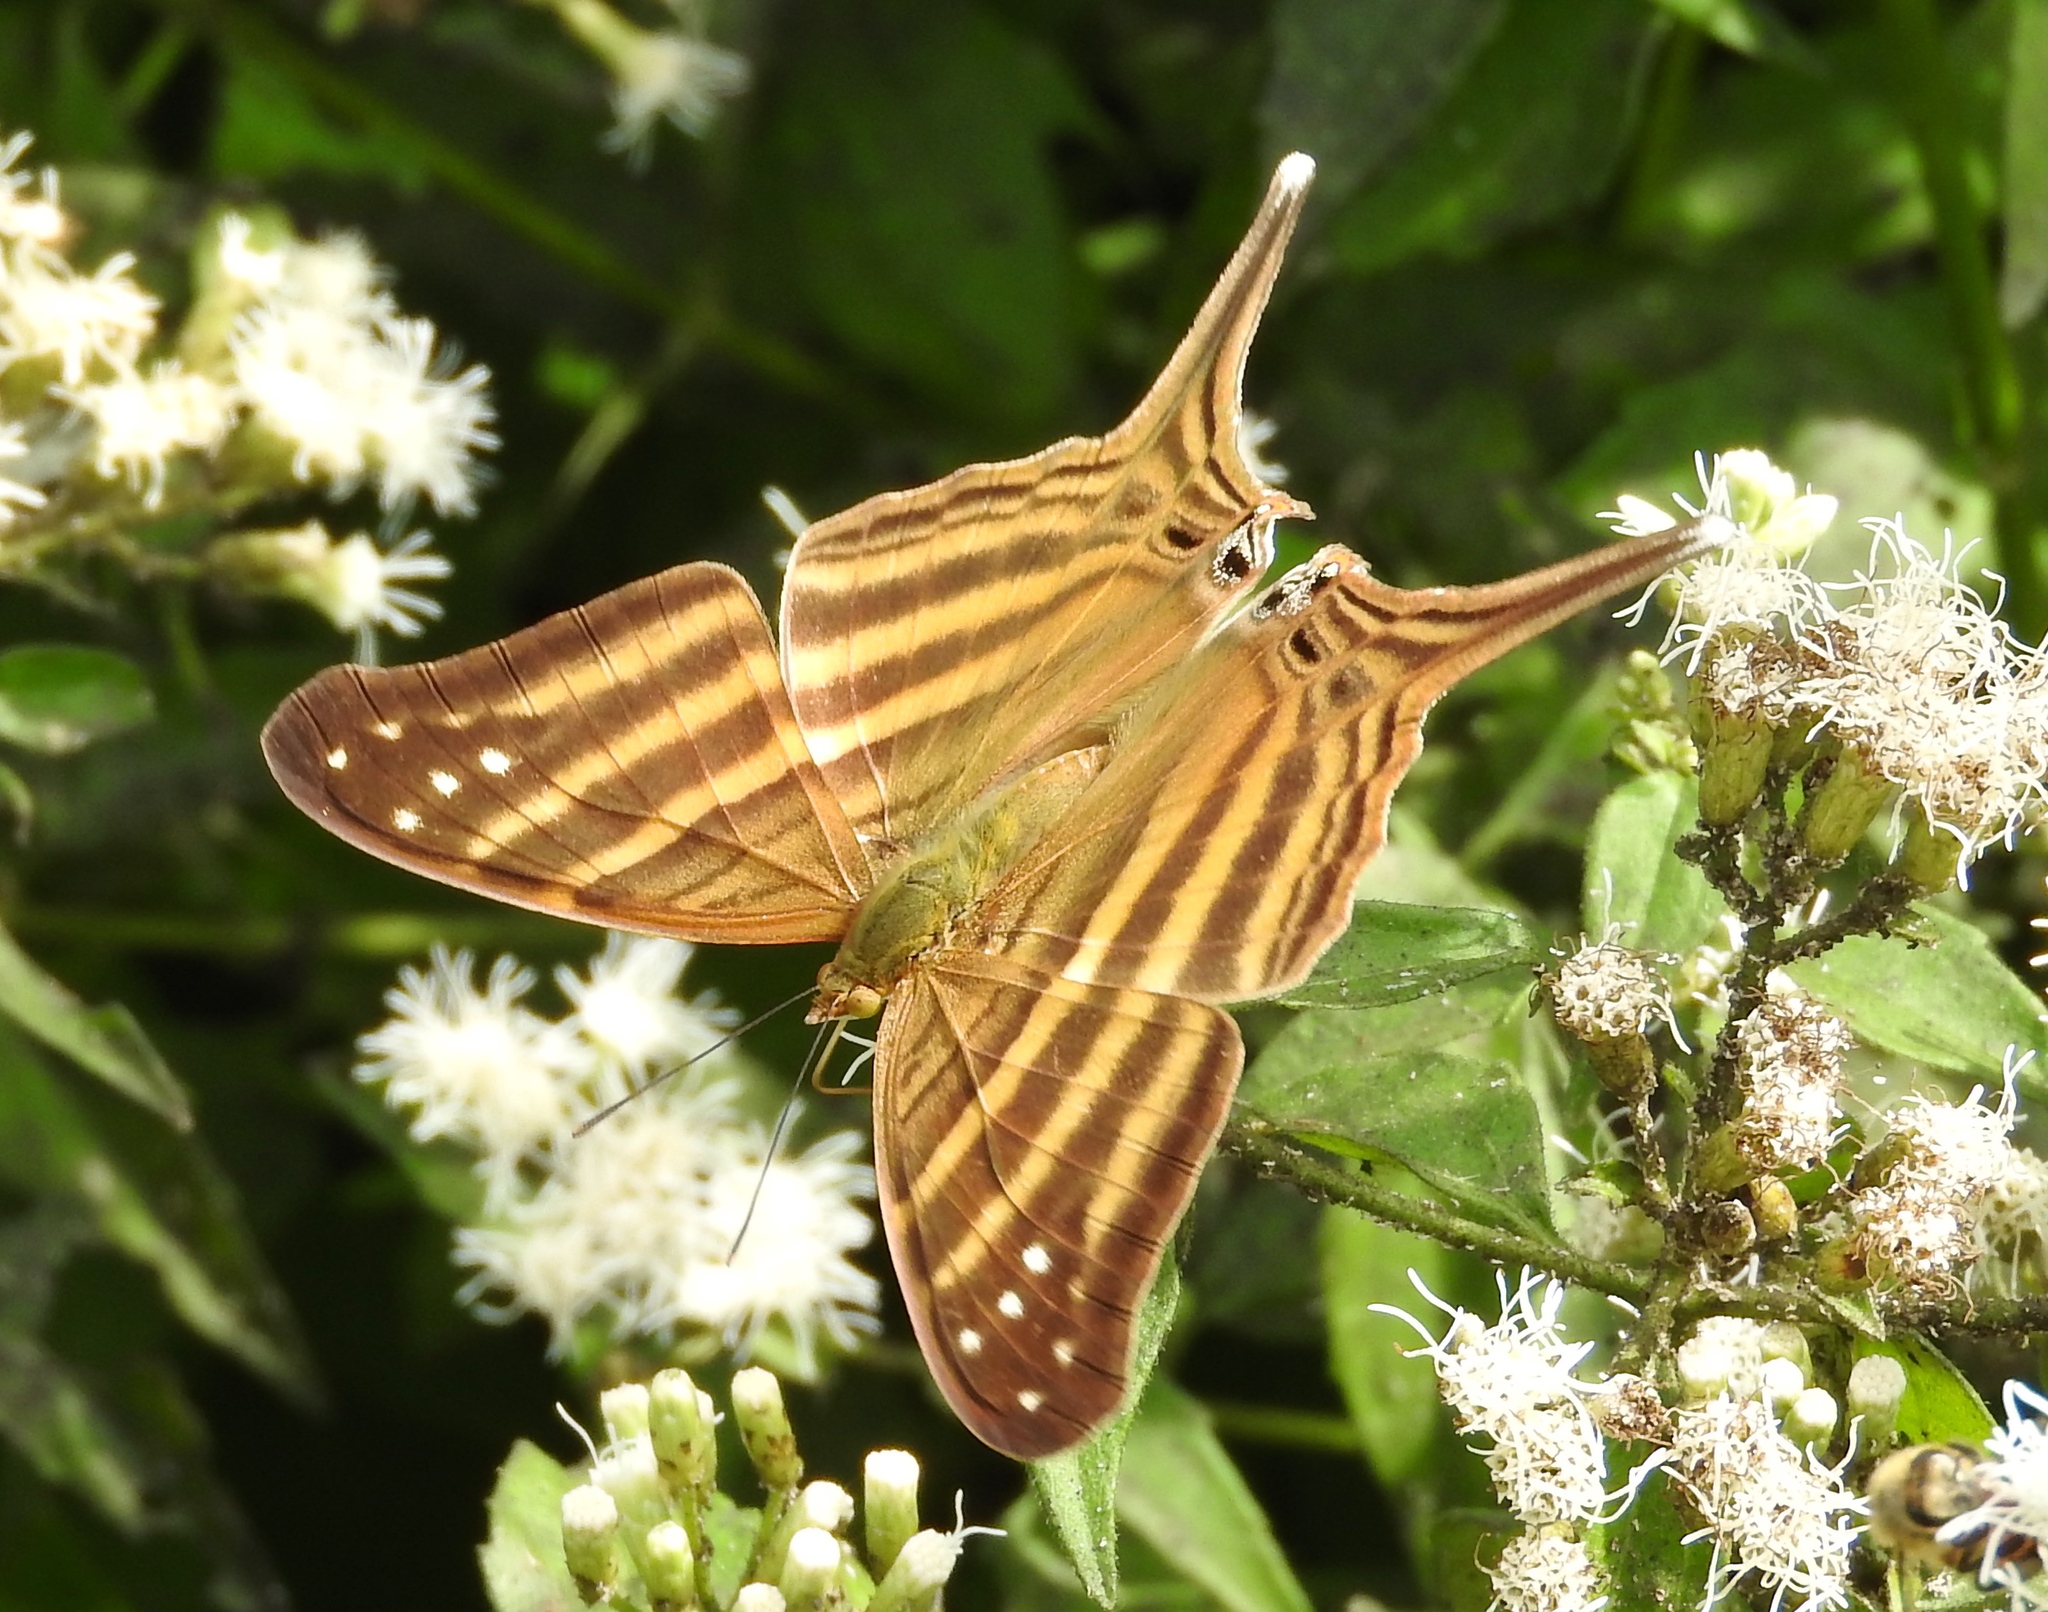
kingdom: Animalia
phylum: Arthropoda
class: Insecta
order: Lepidoptera
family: Nymphalidae
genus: Marpesia
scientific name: Marpesia chiron
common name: Many-banded daggerwing
